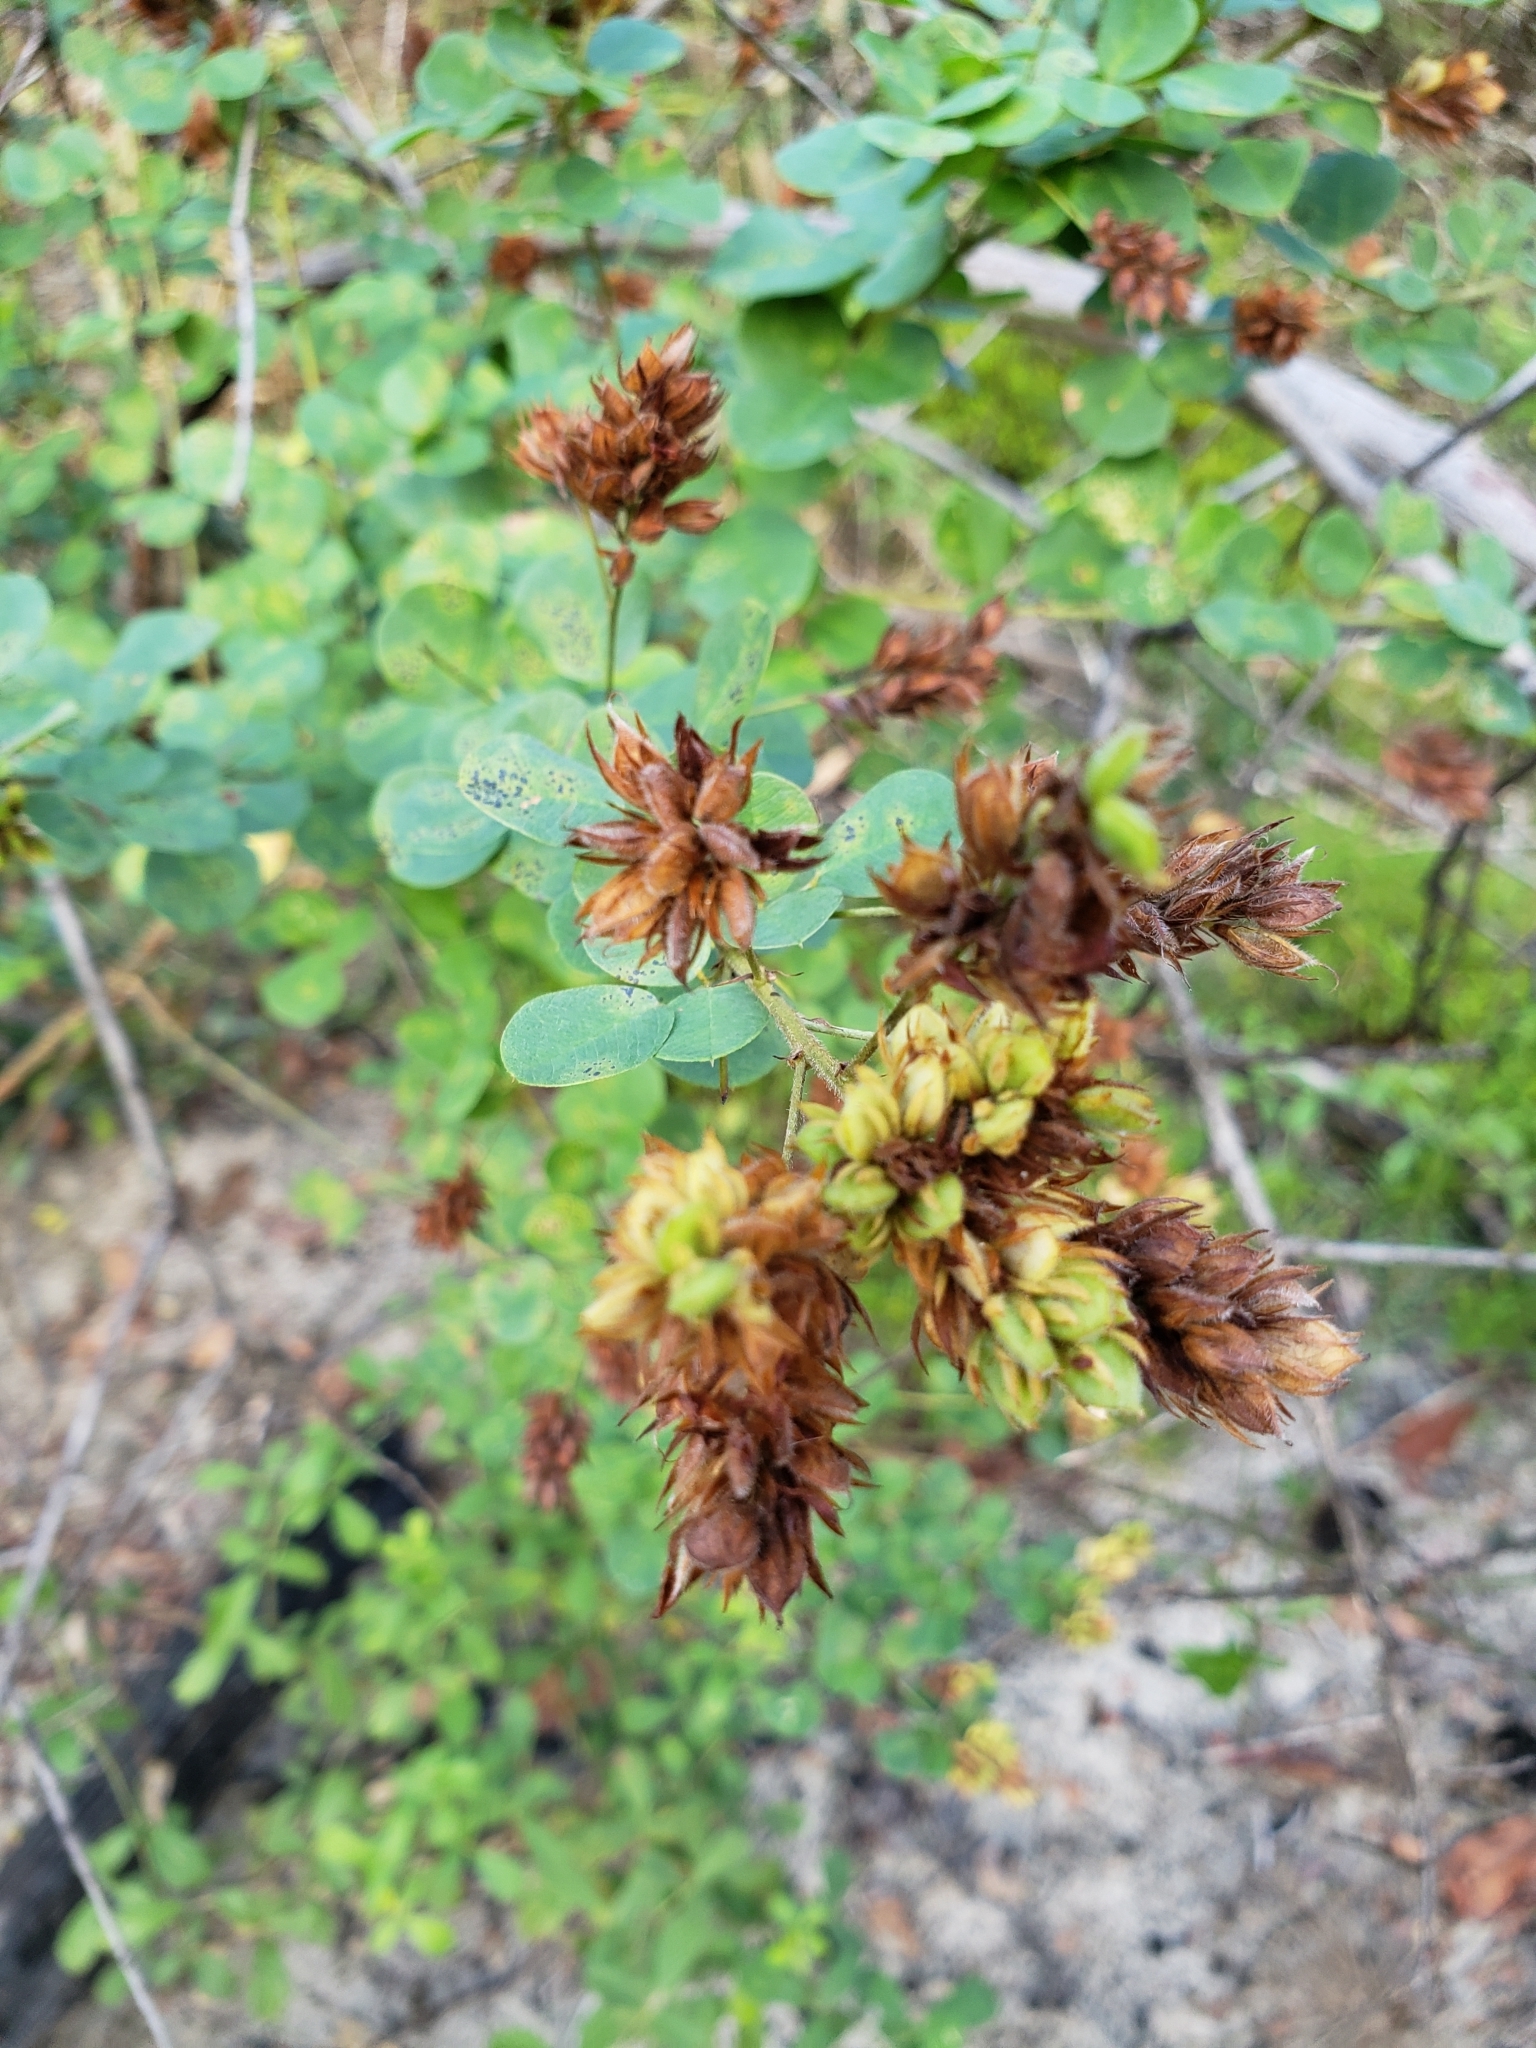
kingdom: Plantae
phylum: Tracheophyta
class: Magnoliopsida
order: Fabales
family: Fabaceae
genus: Lespedeza
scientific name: Lespedeza hirta
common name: Hairy lespedeza
